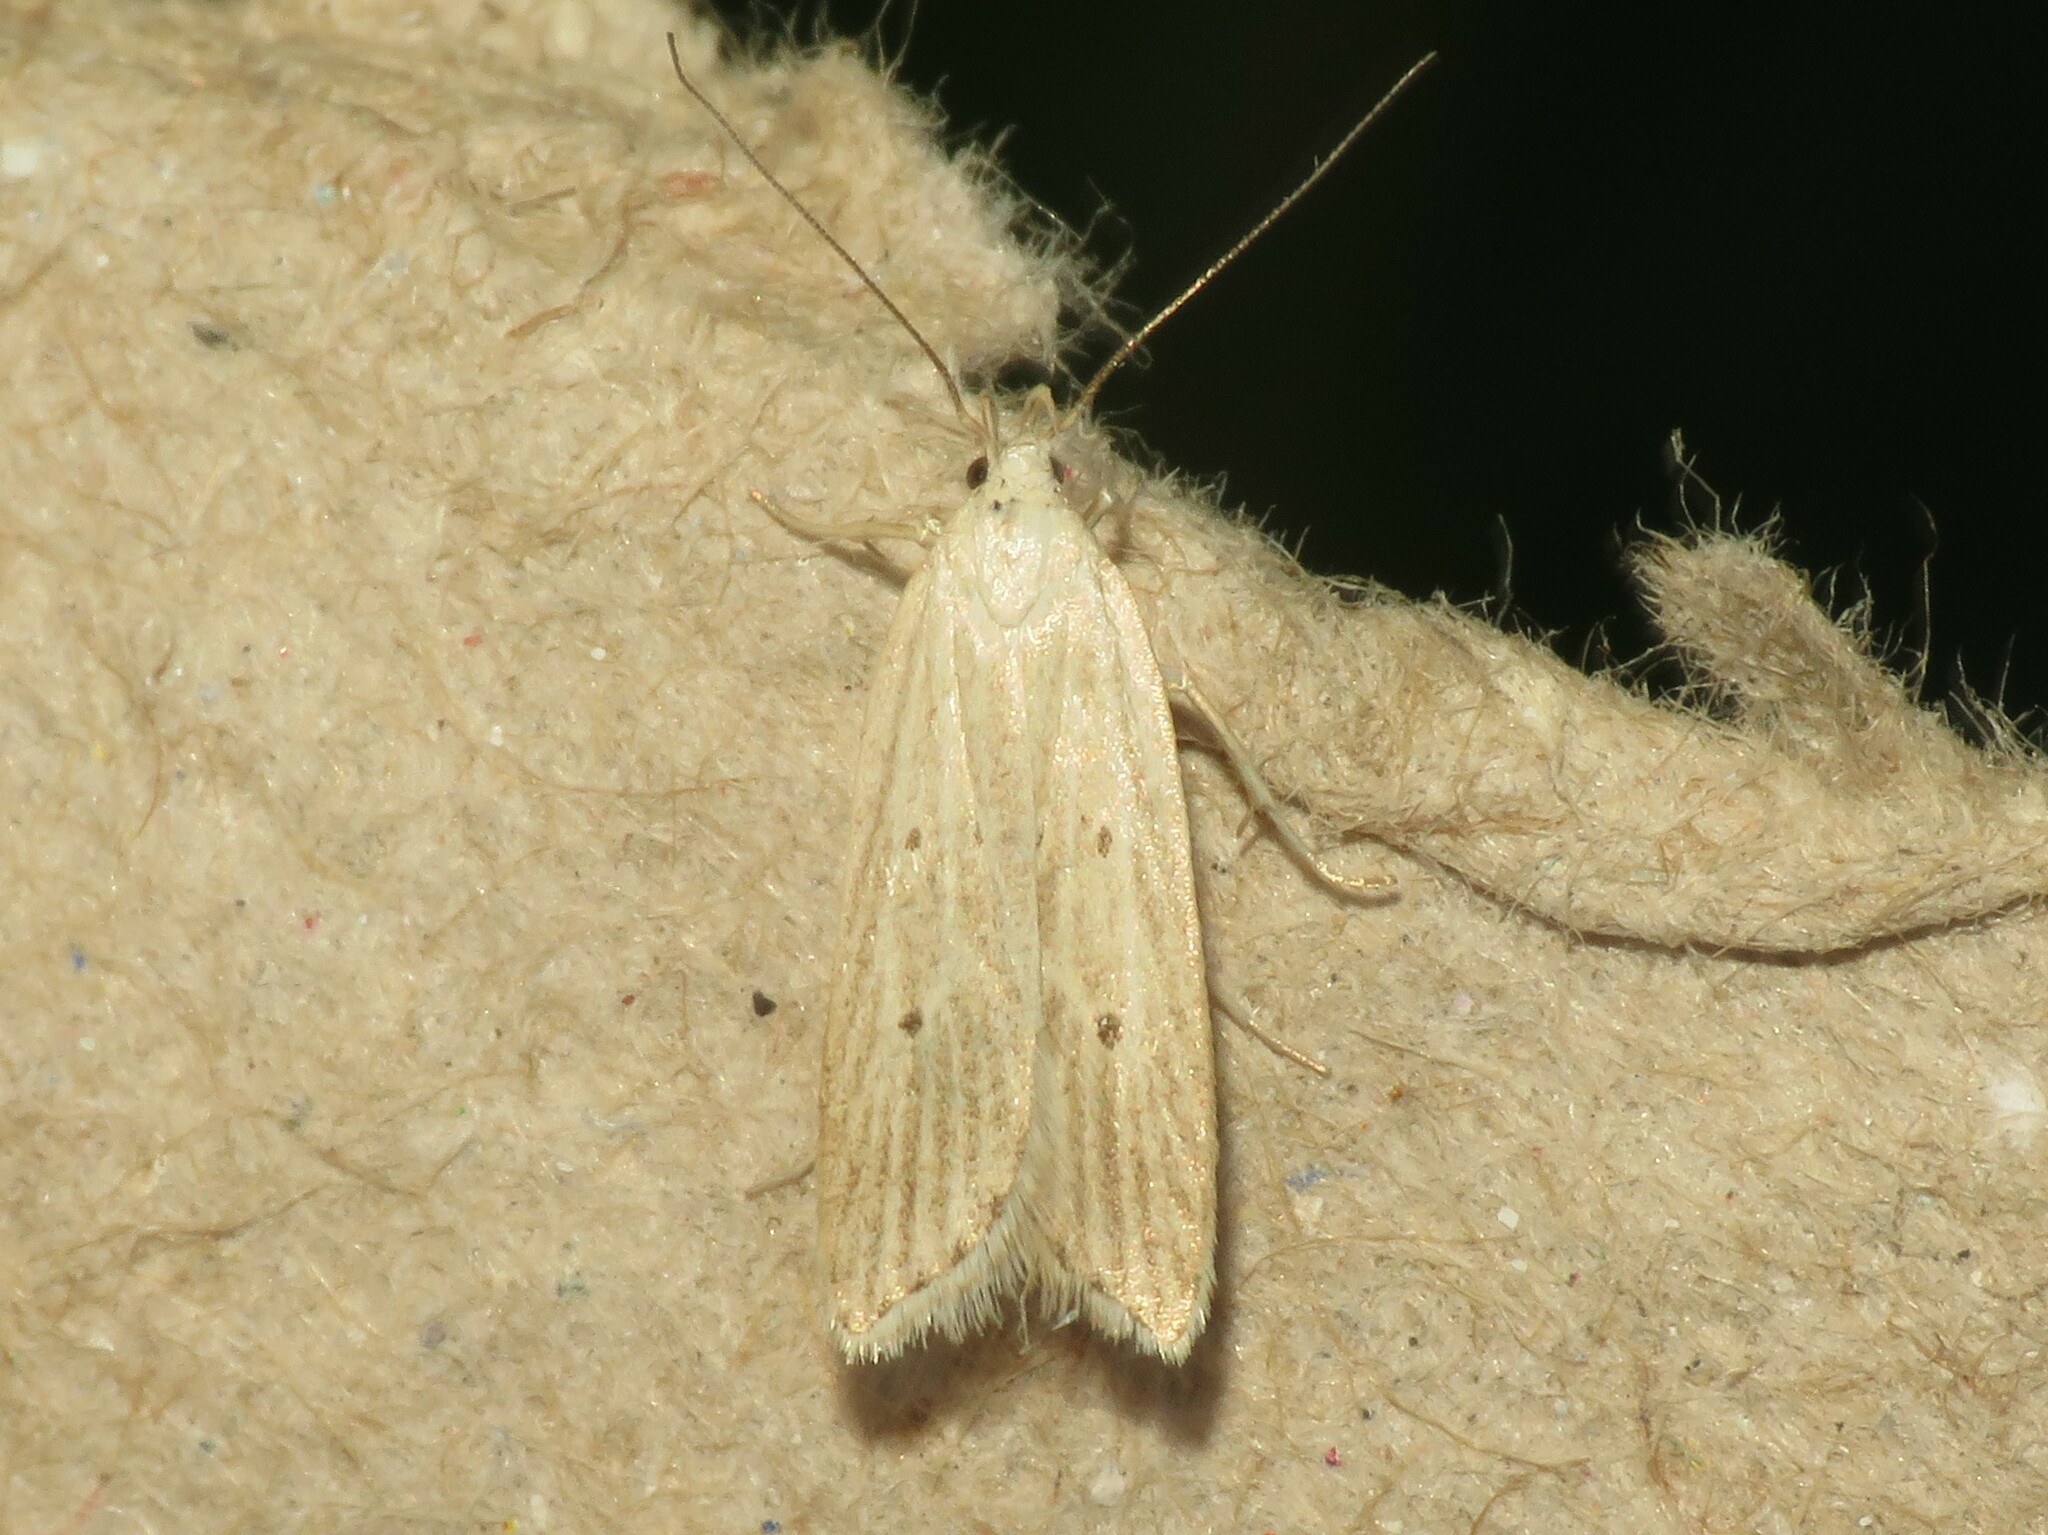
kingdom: Animalia
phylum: Arthropoda
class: Insecta
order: Lepidoptera
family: Gelechiidae
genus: Helcystogramma
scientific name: Helcystogramma fernaldella
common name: Fernald's helcystogramma moth
